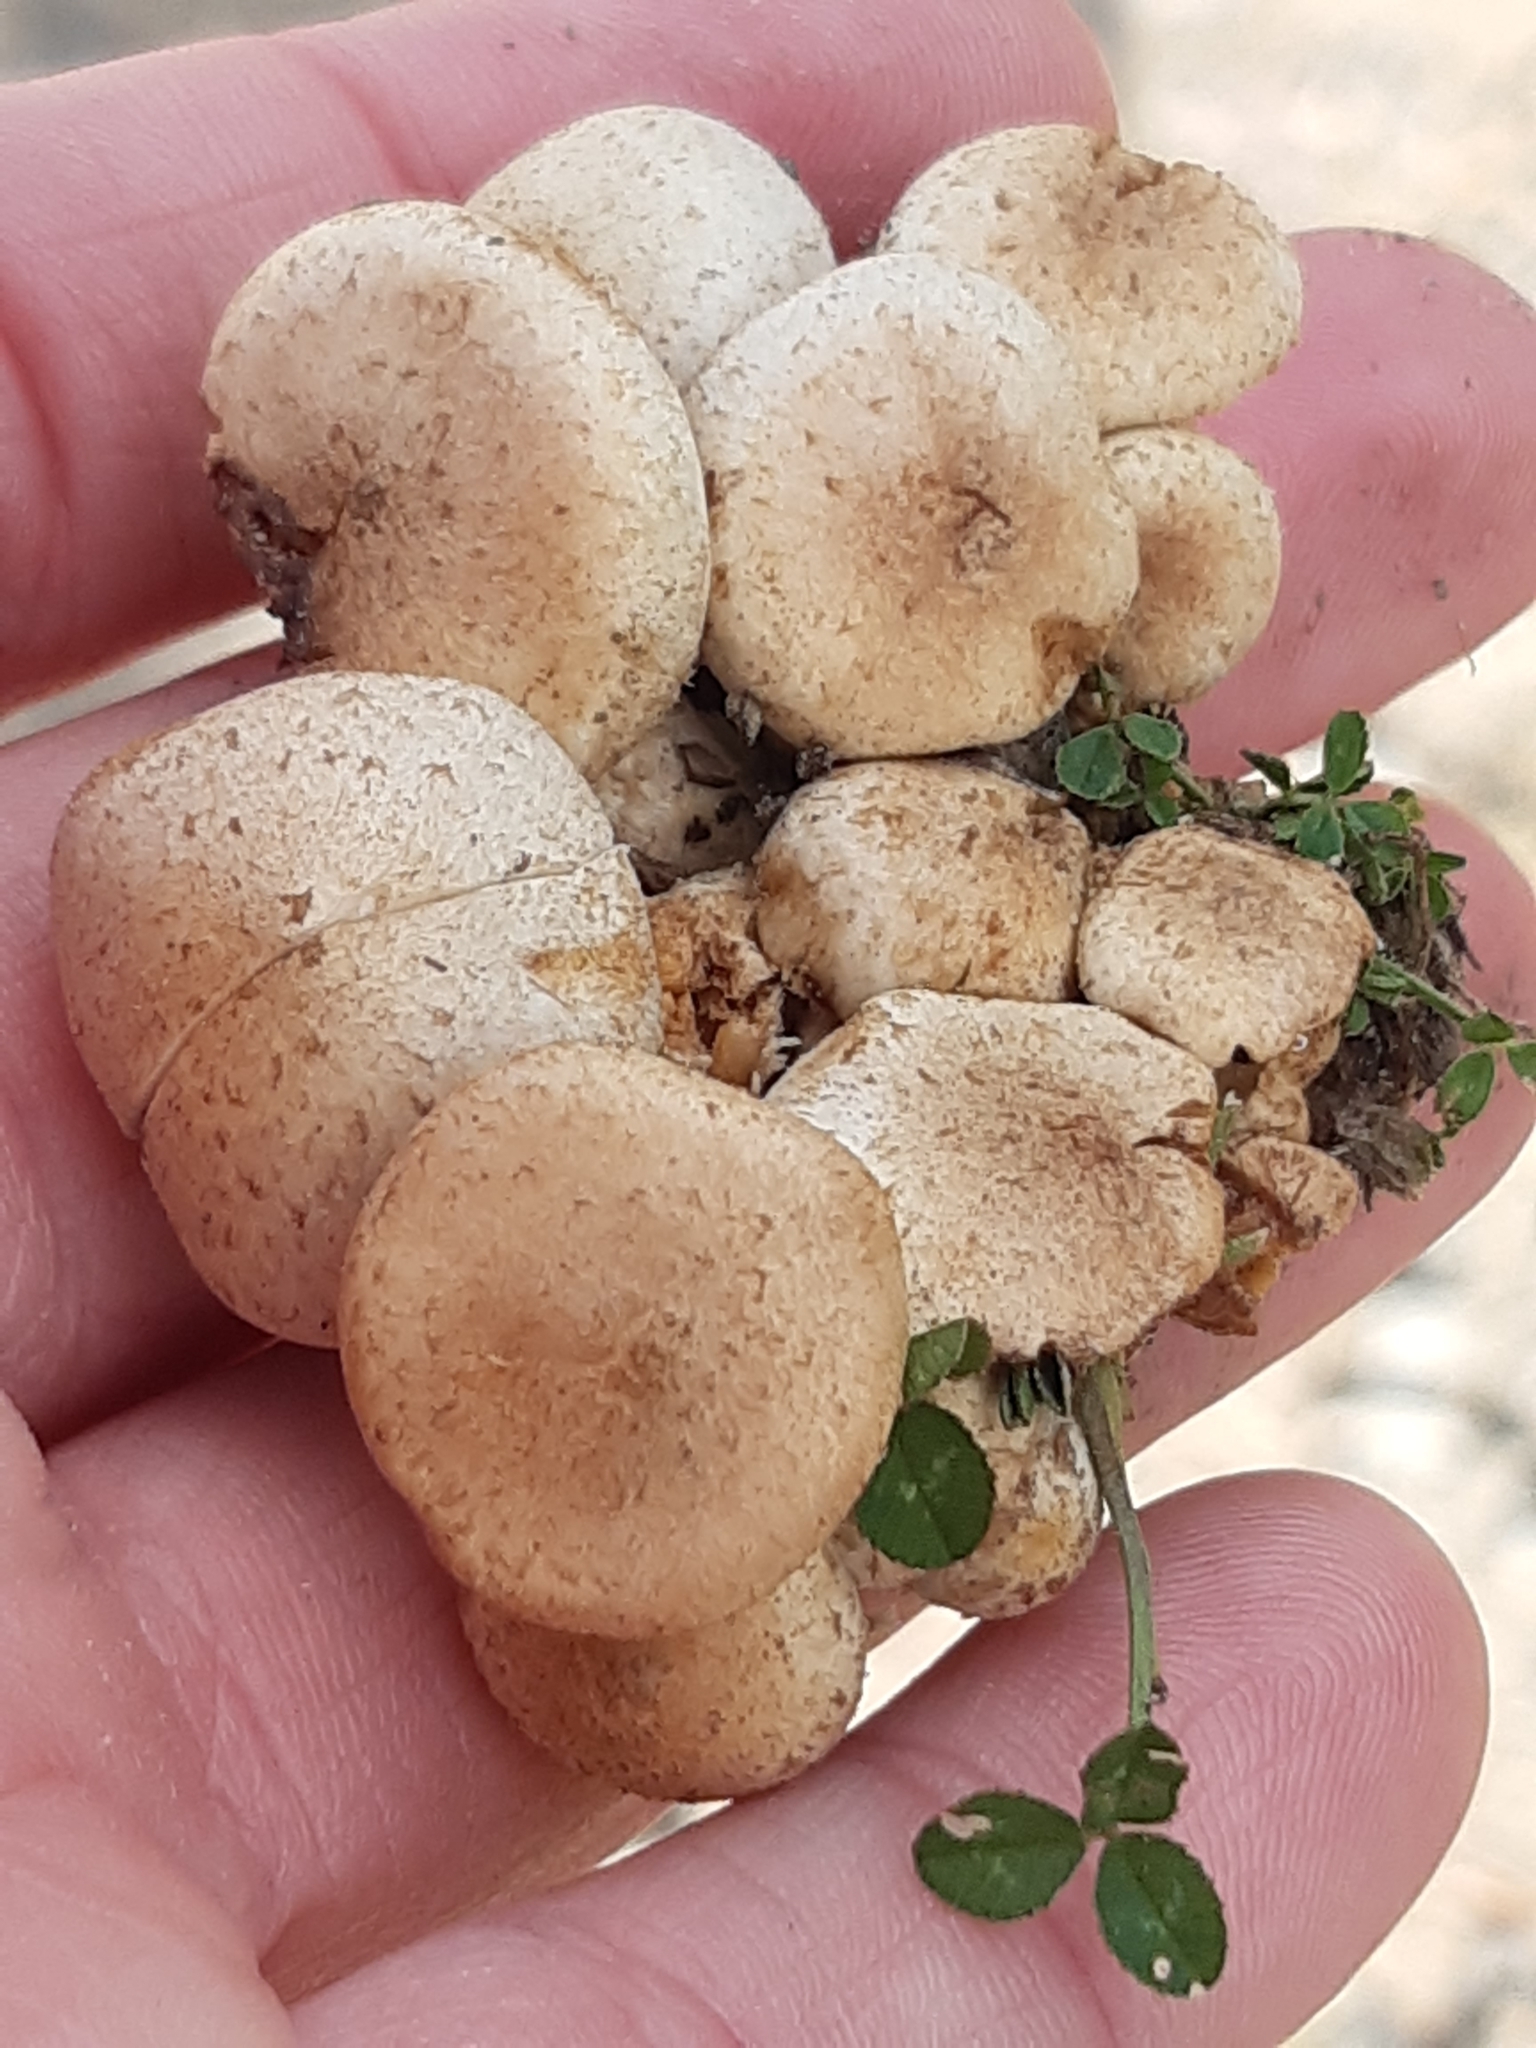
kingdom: Fungi
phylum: Basidiomycota
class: Agaricomycetes
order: Agaricales
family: Strophariaceae
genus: Pholiota
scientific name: Pholiota gummosa
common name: Sticky scalycap
